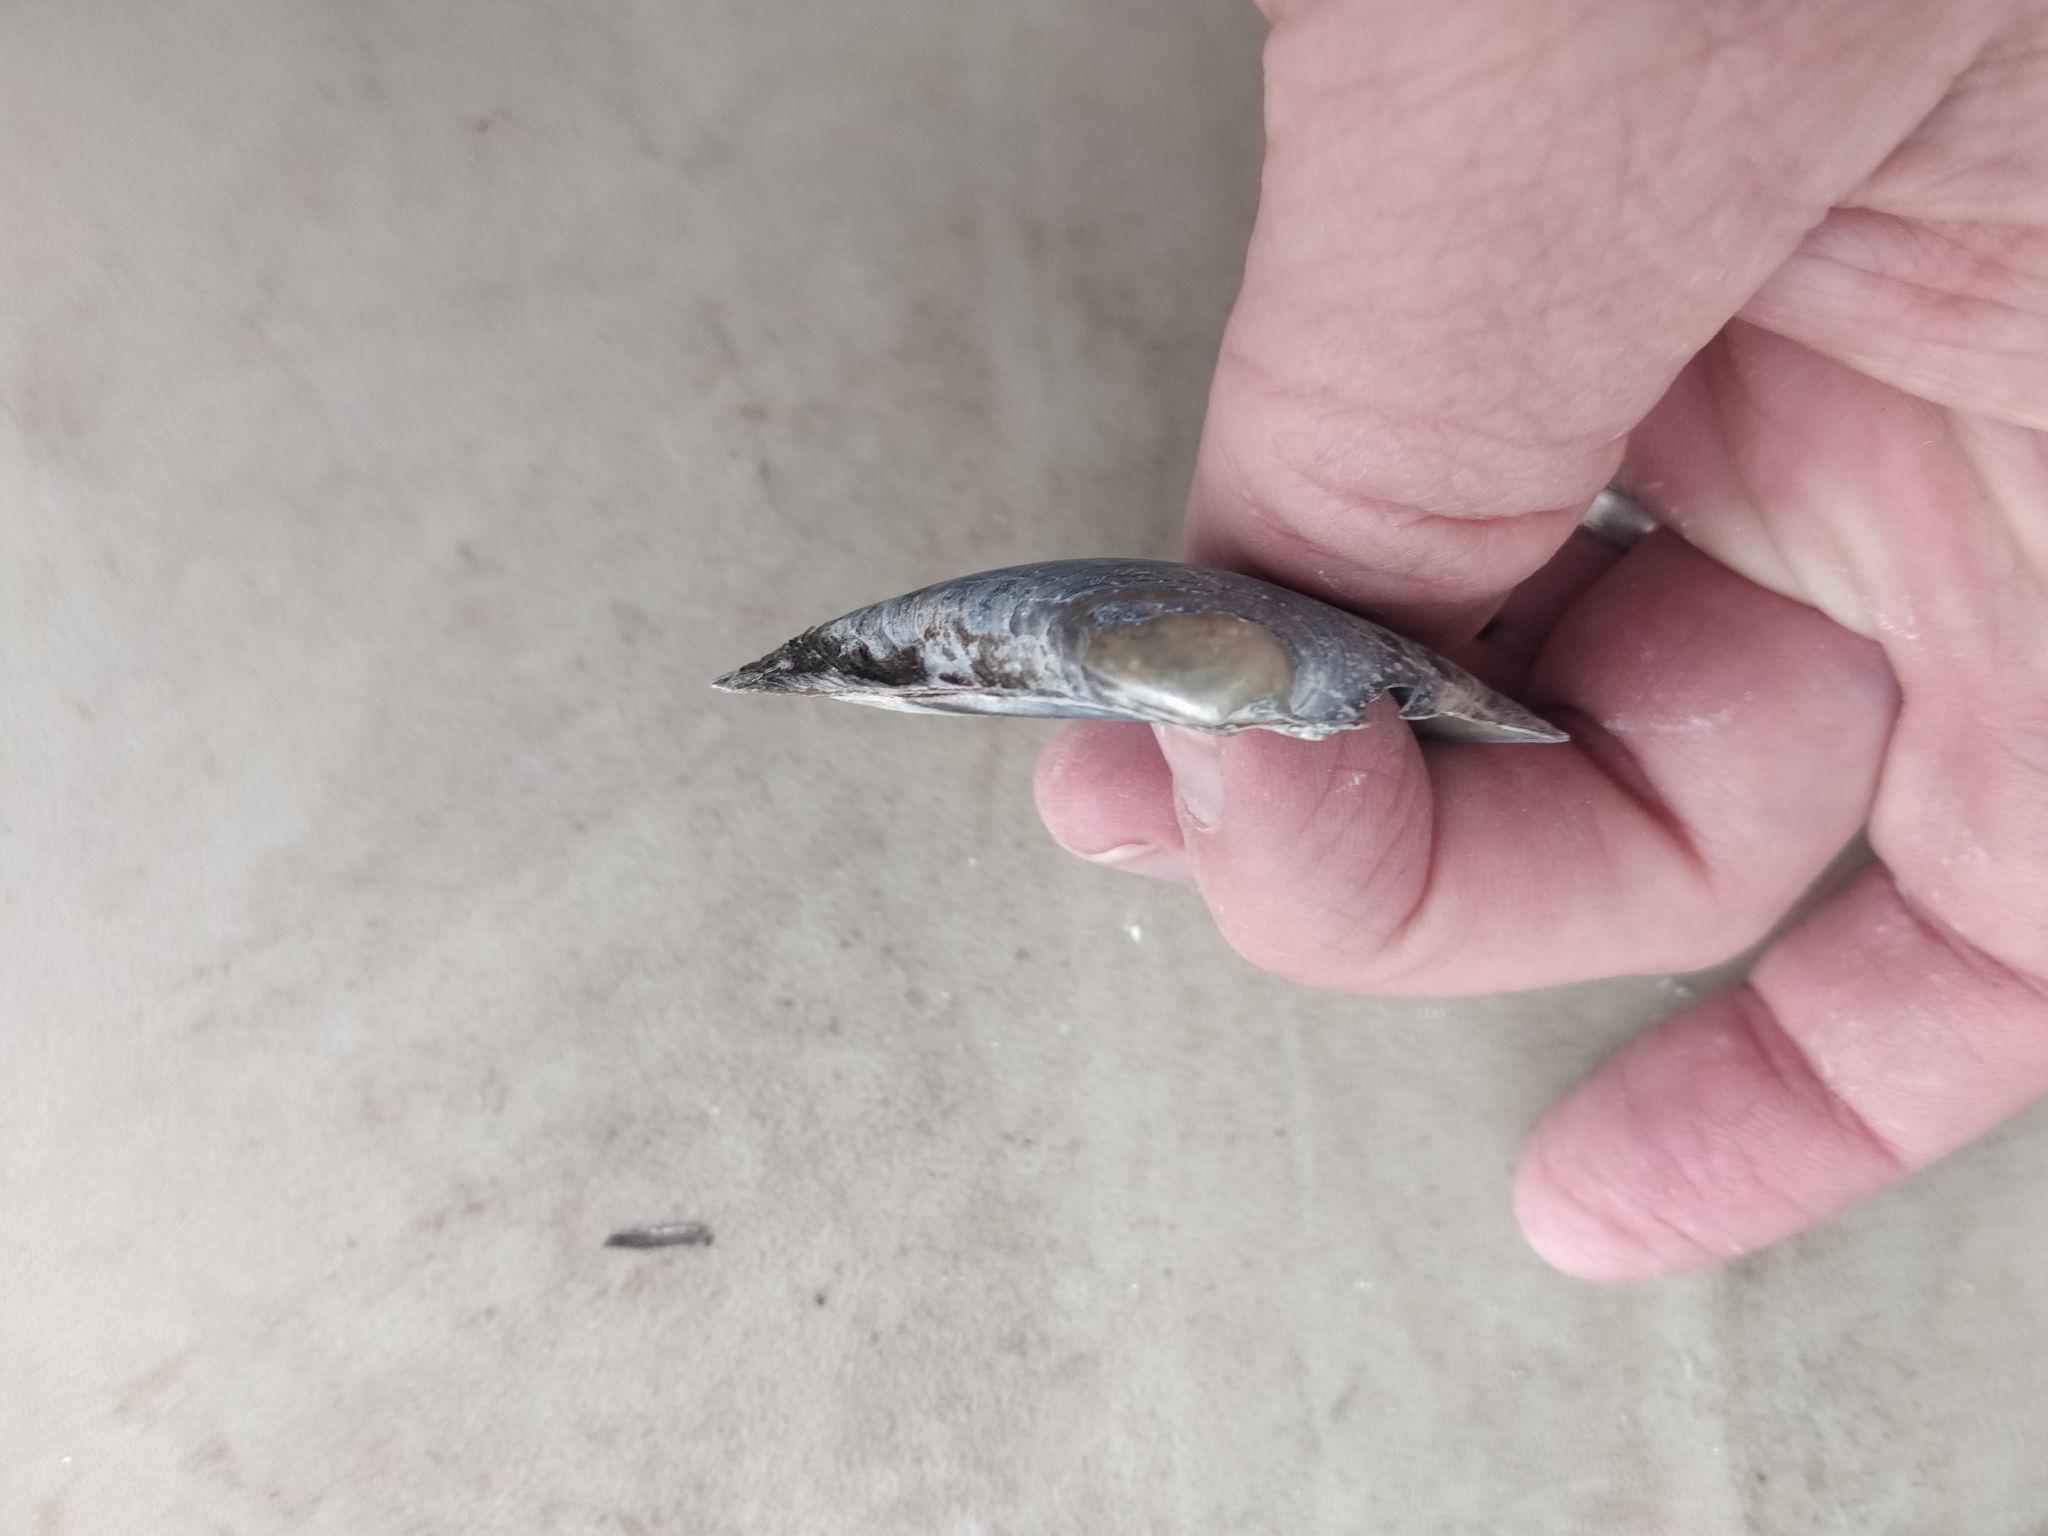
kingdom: Animalia
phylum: Mollusca
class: Bivalvia
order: Unionida
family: Unionidae
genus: Lampsilis
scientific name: Lampsilis siliquoidea
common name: Fatmucket
